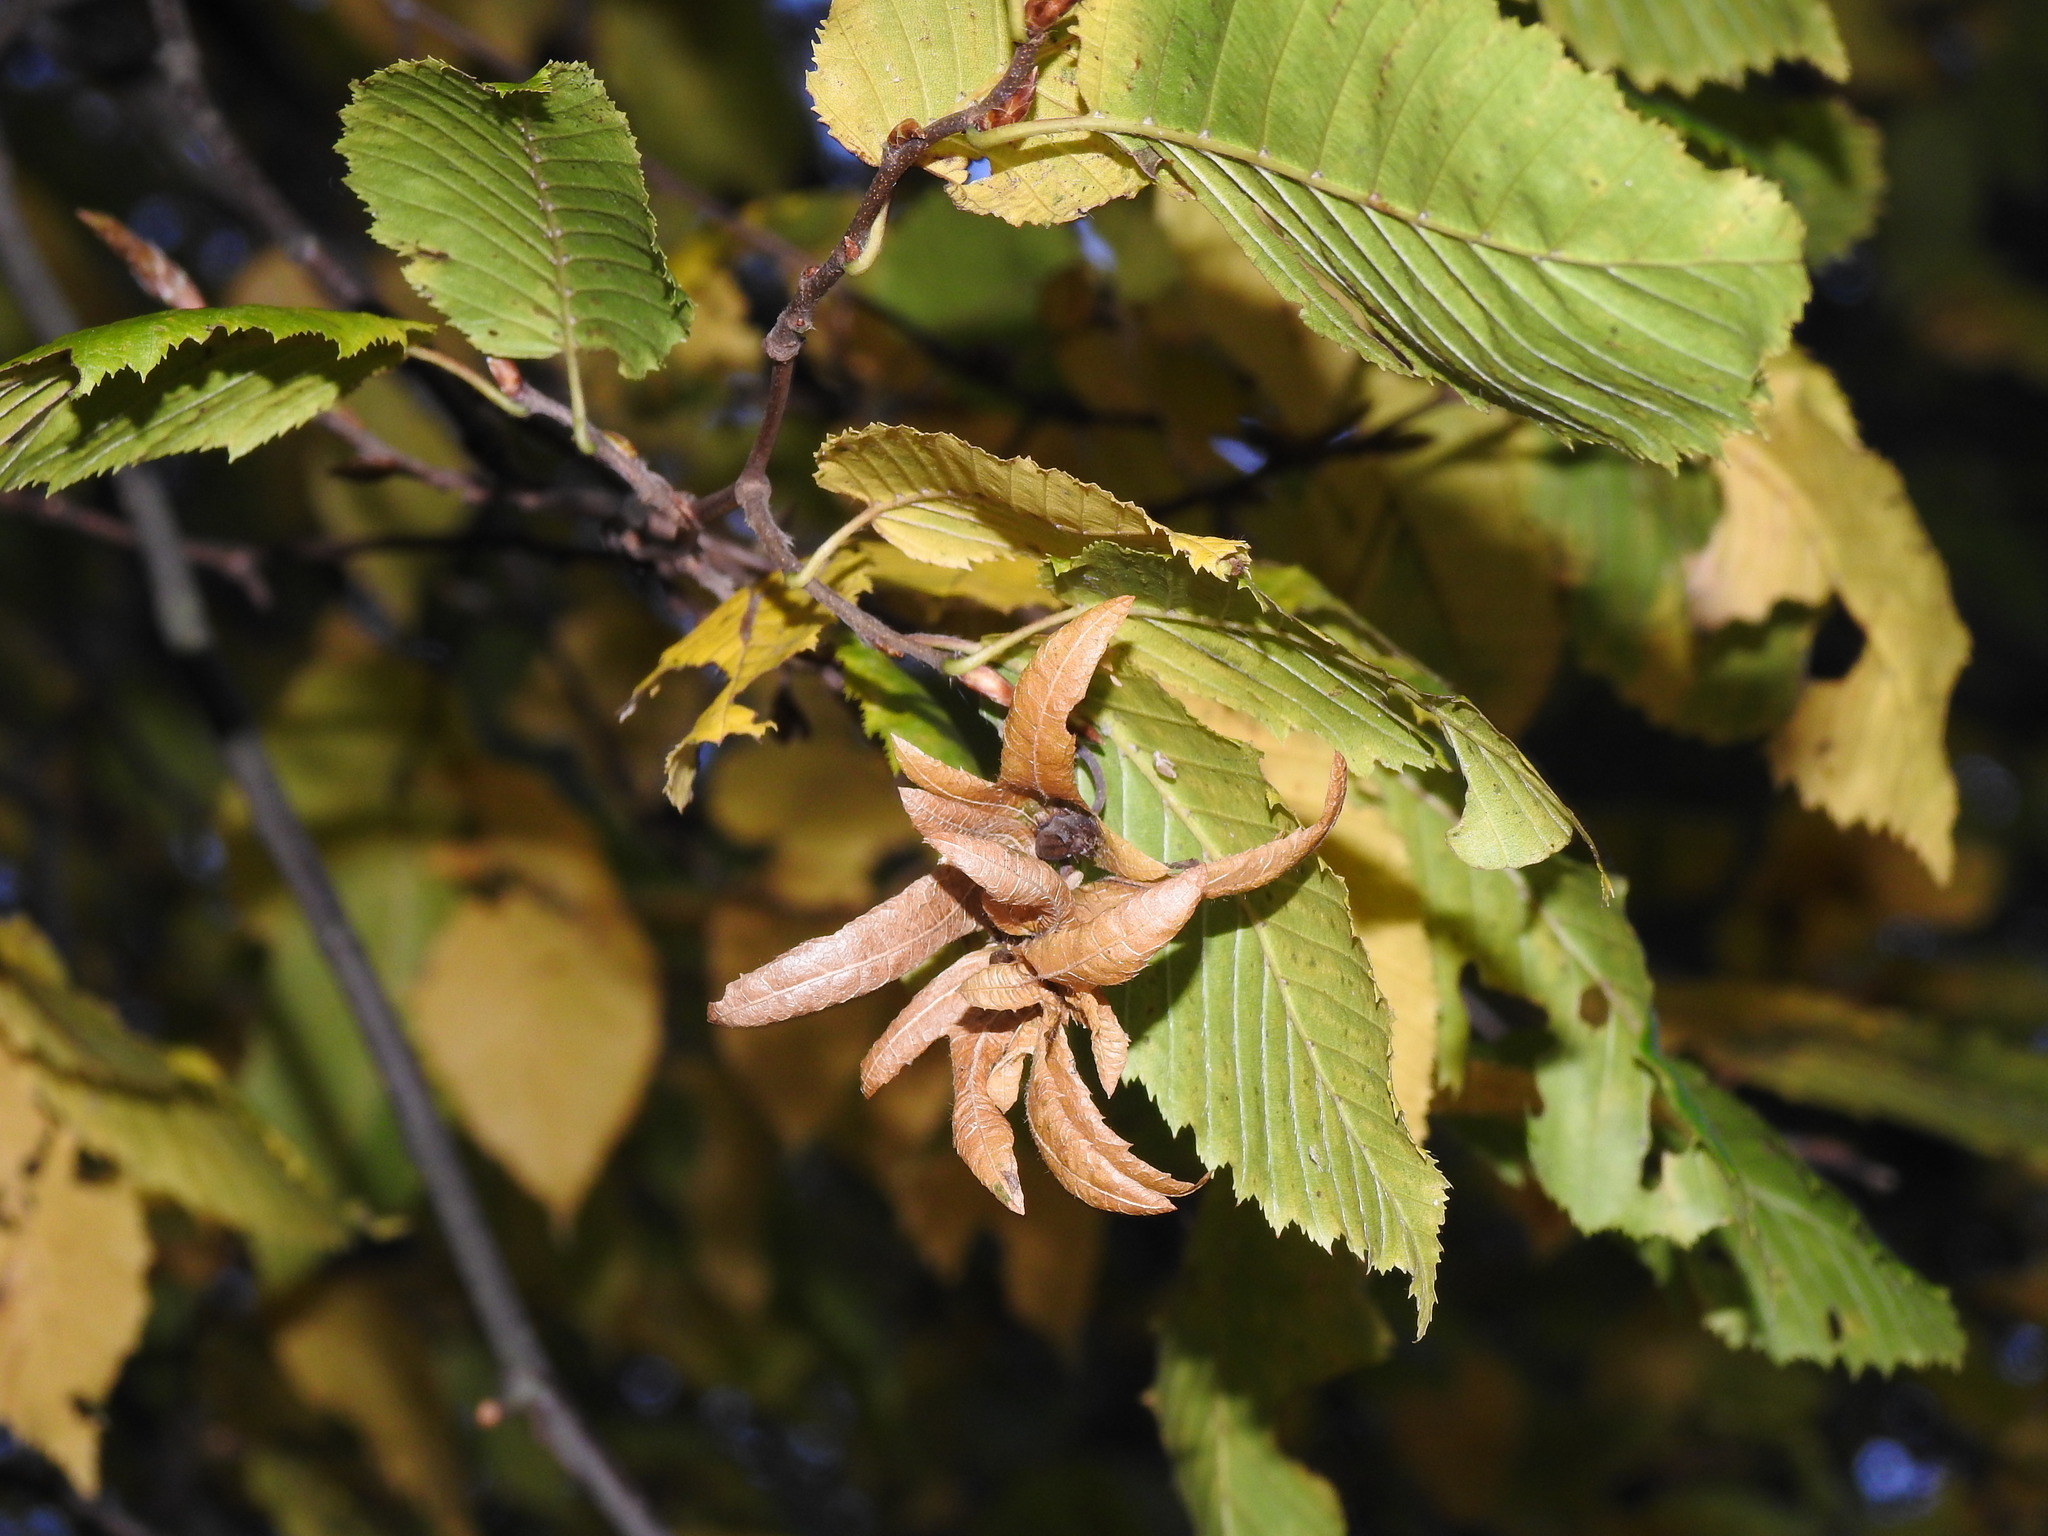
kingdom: Plantae
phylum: Tracheophyta
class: Magnoliopsida
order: Fagales
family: Betulaceae
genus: Carpinus
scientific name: Carpinus betulus
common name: Hornbeam
